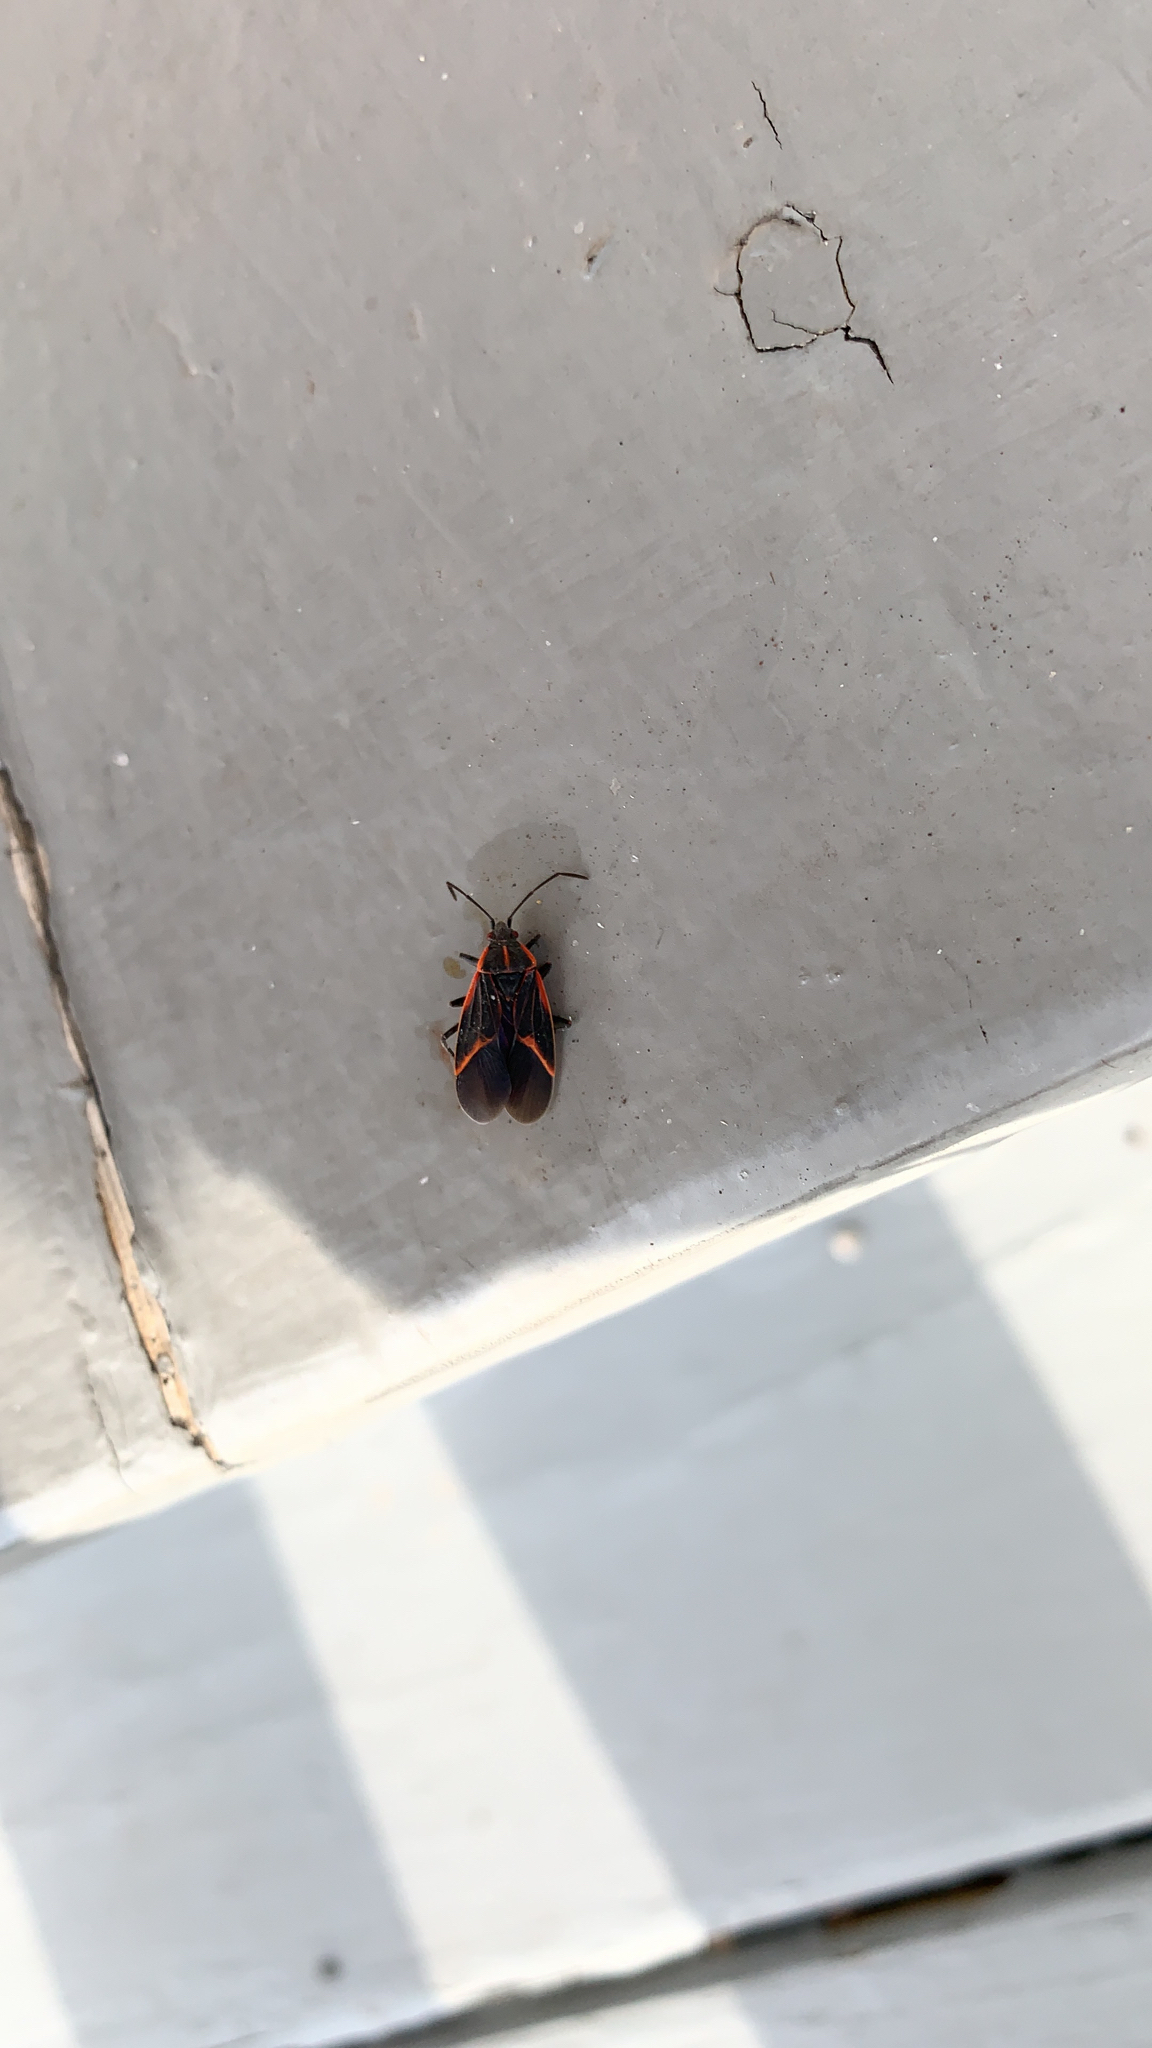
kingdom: Animalia
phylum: Arthropoda
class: Insecta
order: Hemiptera
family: Rhopalidae
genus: Boisea
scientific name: Boisea trivittata
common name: Boxelder bug
